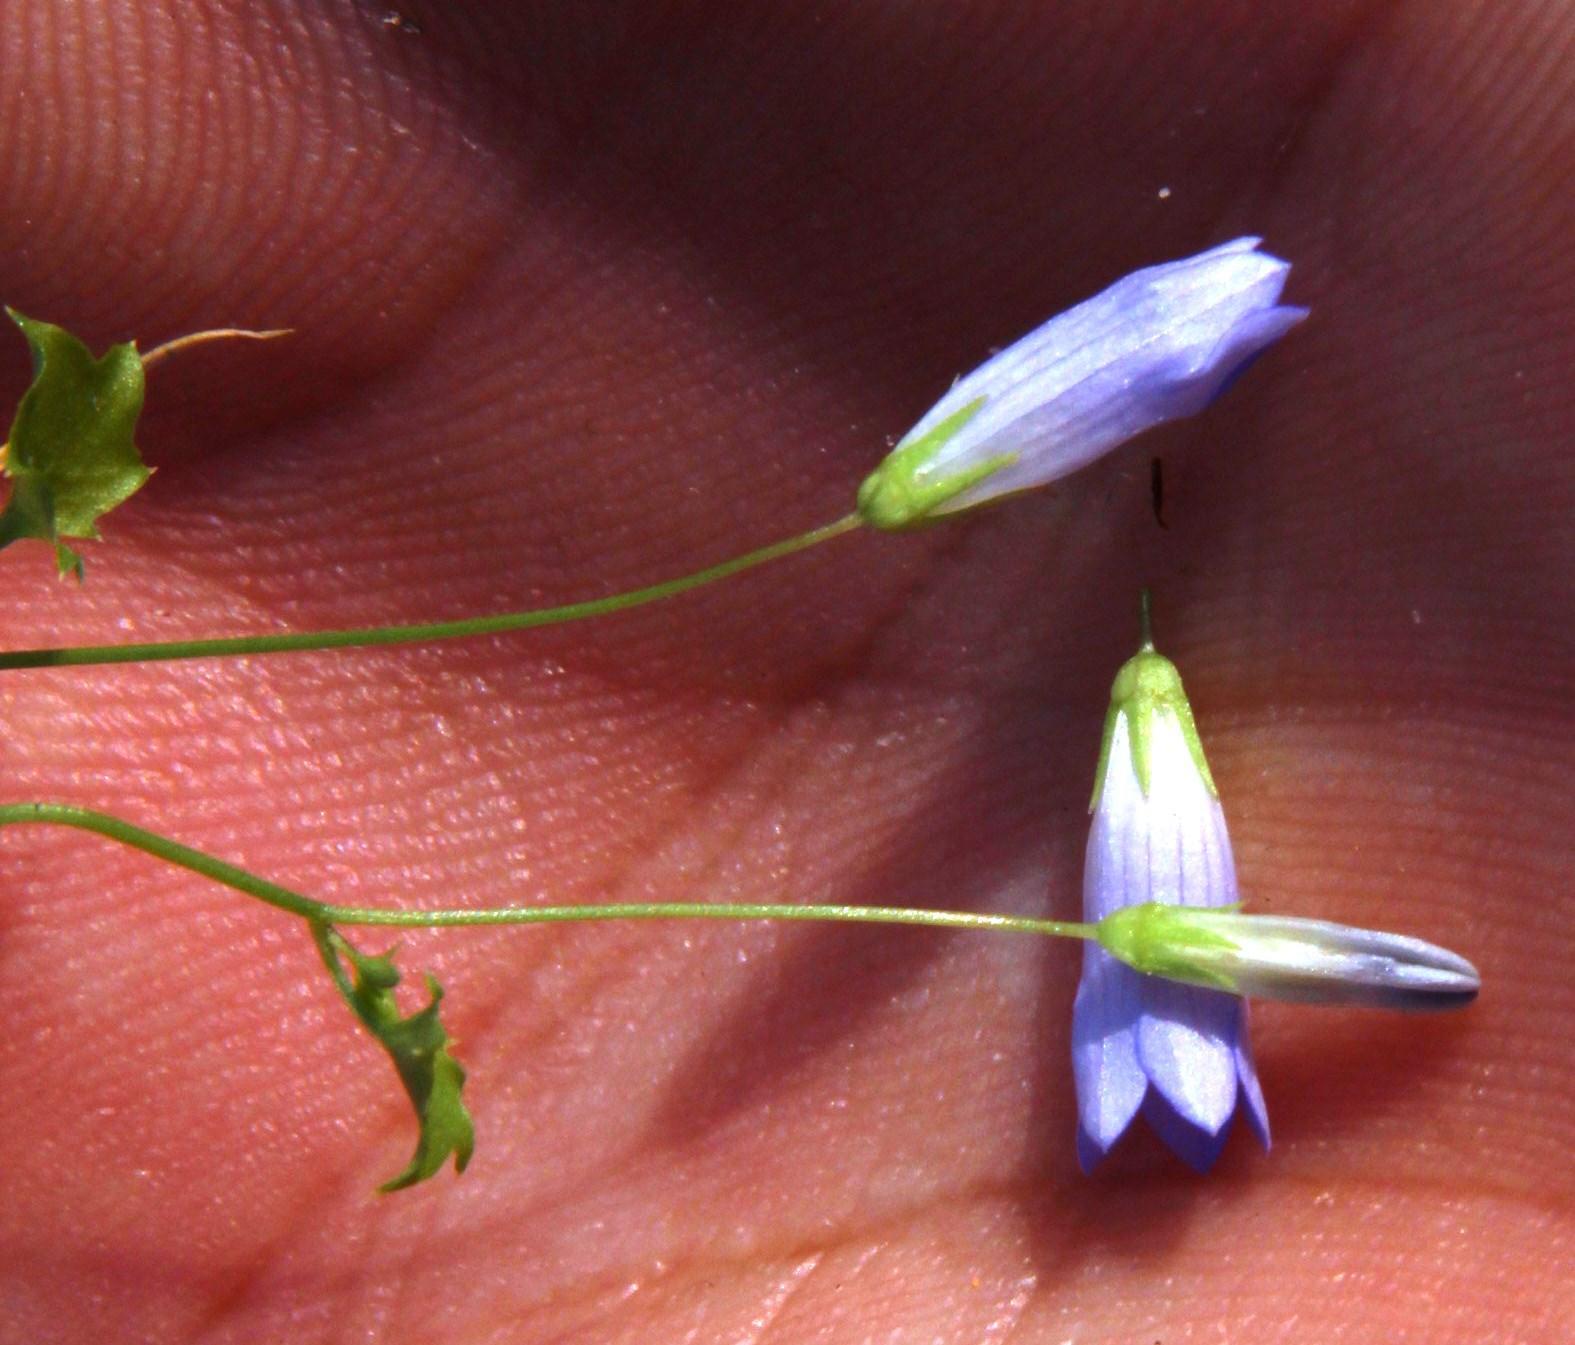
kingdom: Plantae
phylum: Tracheophyta
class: Magnoliopsida
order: Asterales
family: Campanulaceae
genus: Hesperocodon
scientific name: Hesperocodon hederaceus
